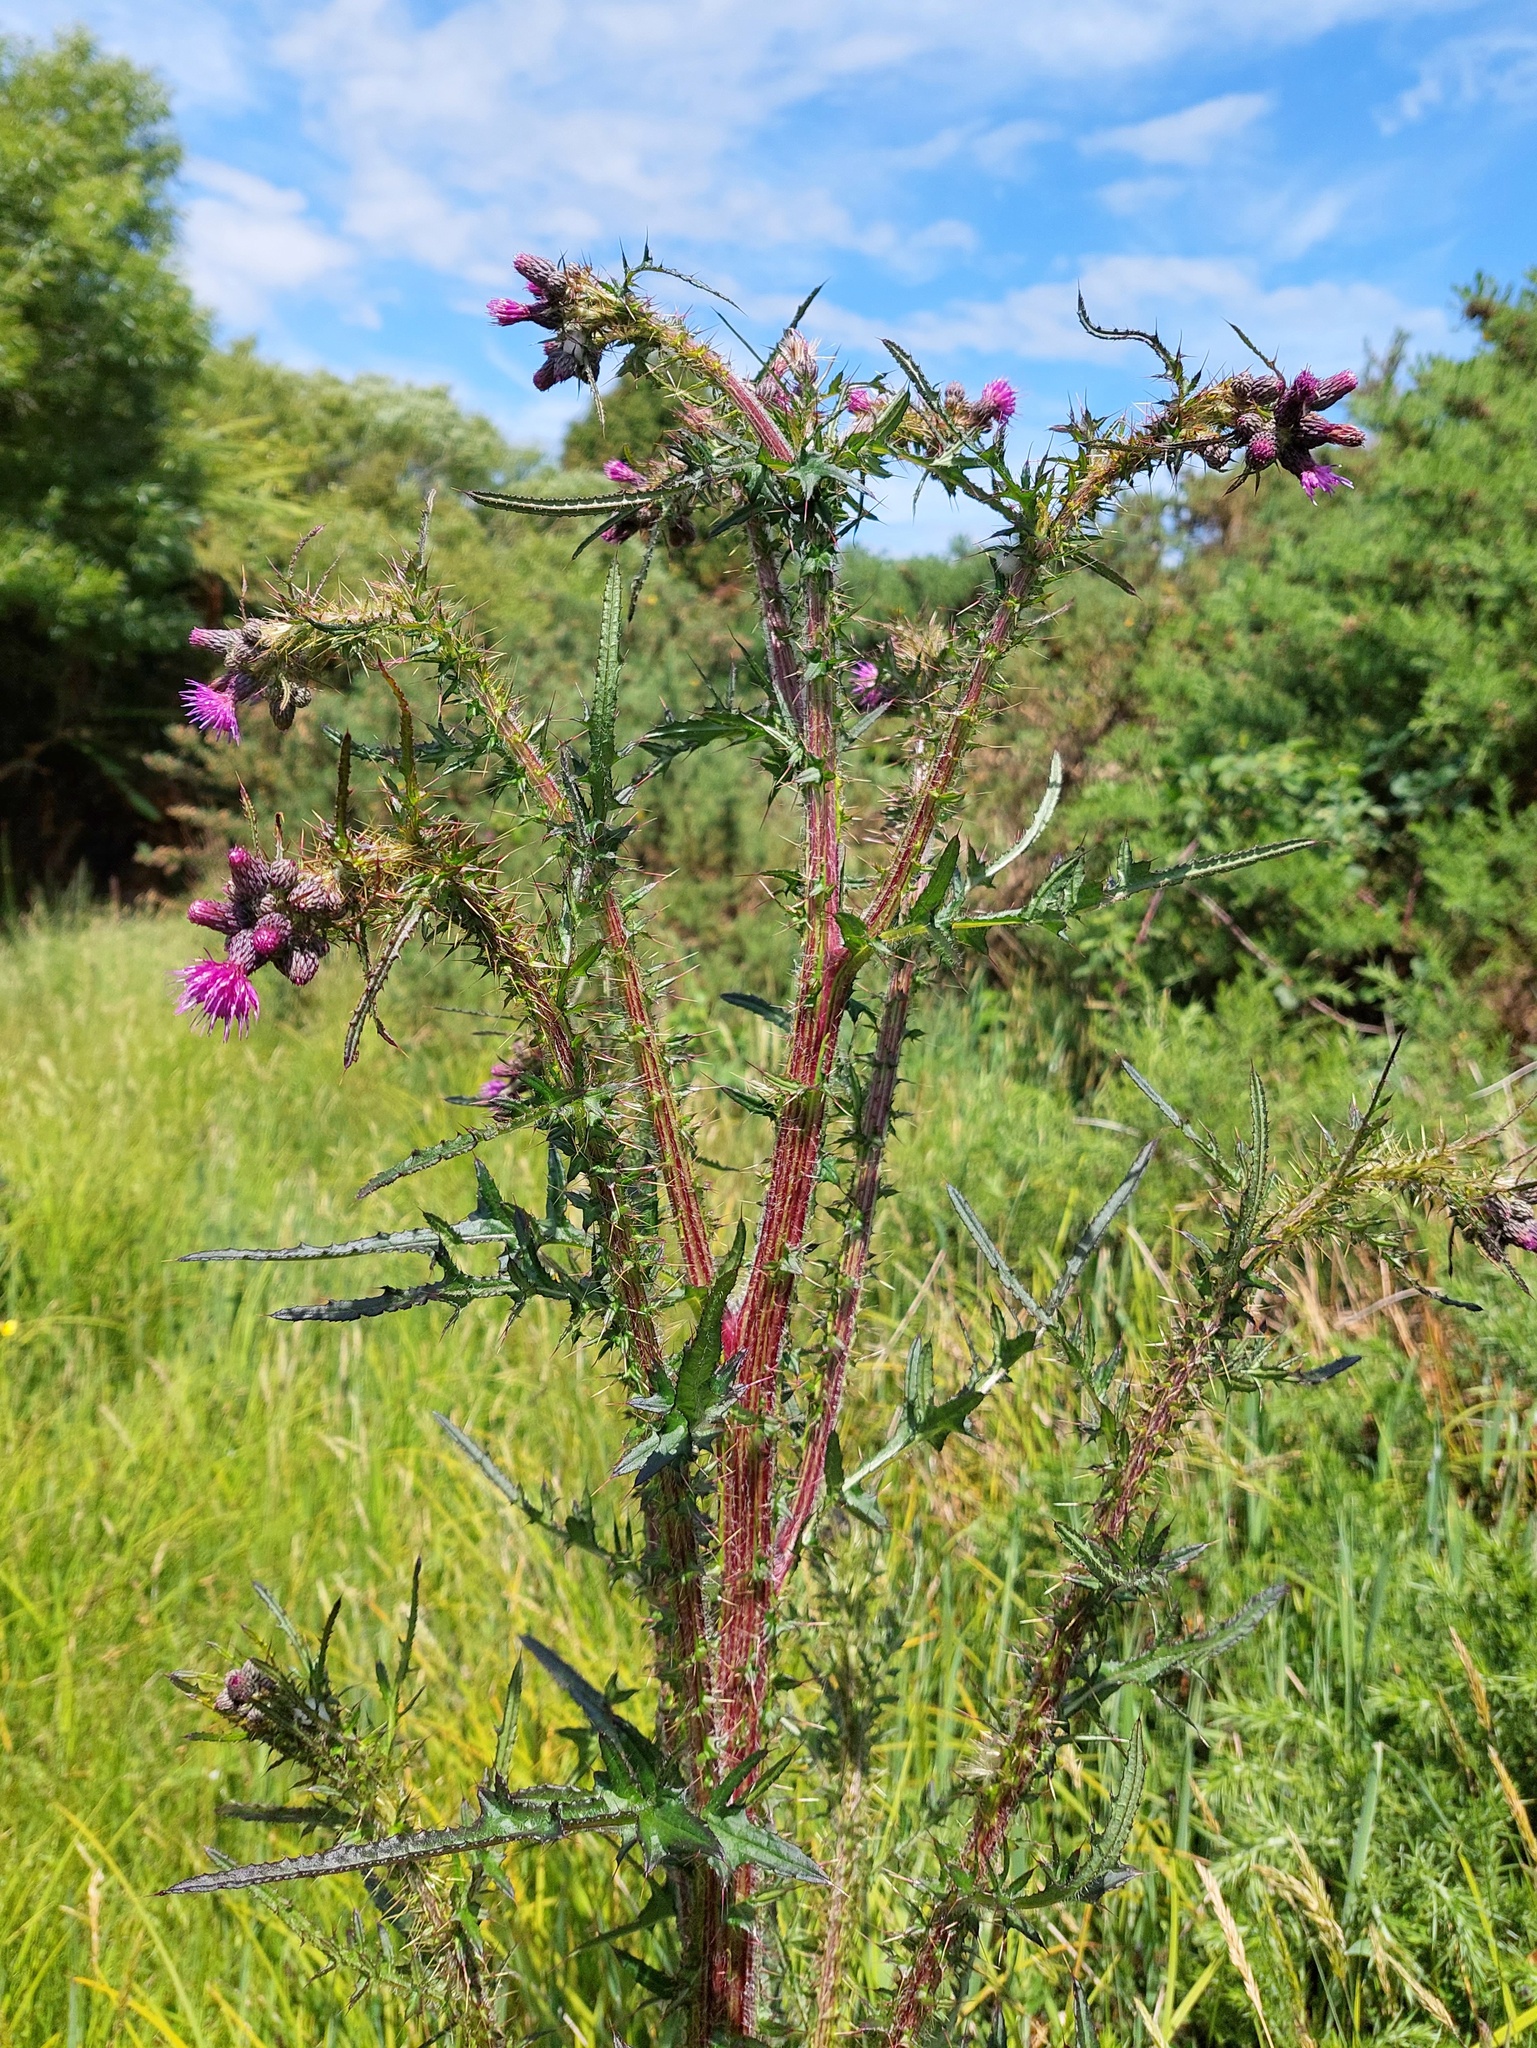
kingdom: Plantae
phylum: Tracheophyta
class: Magnoliopsida
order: Asterales
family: Asteraceae
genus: Cirsium
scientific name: Cirsium palustre
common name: Marsh thistle
